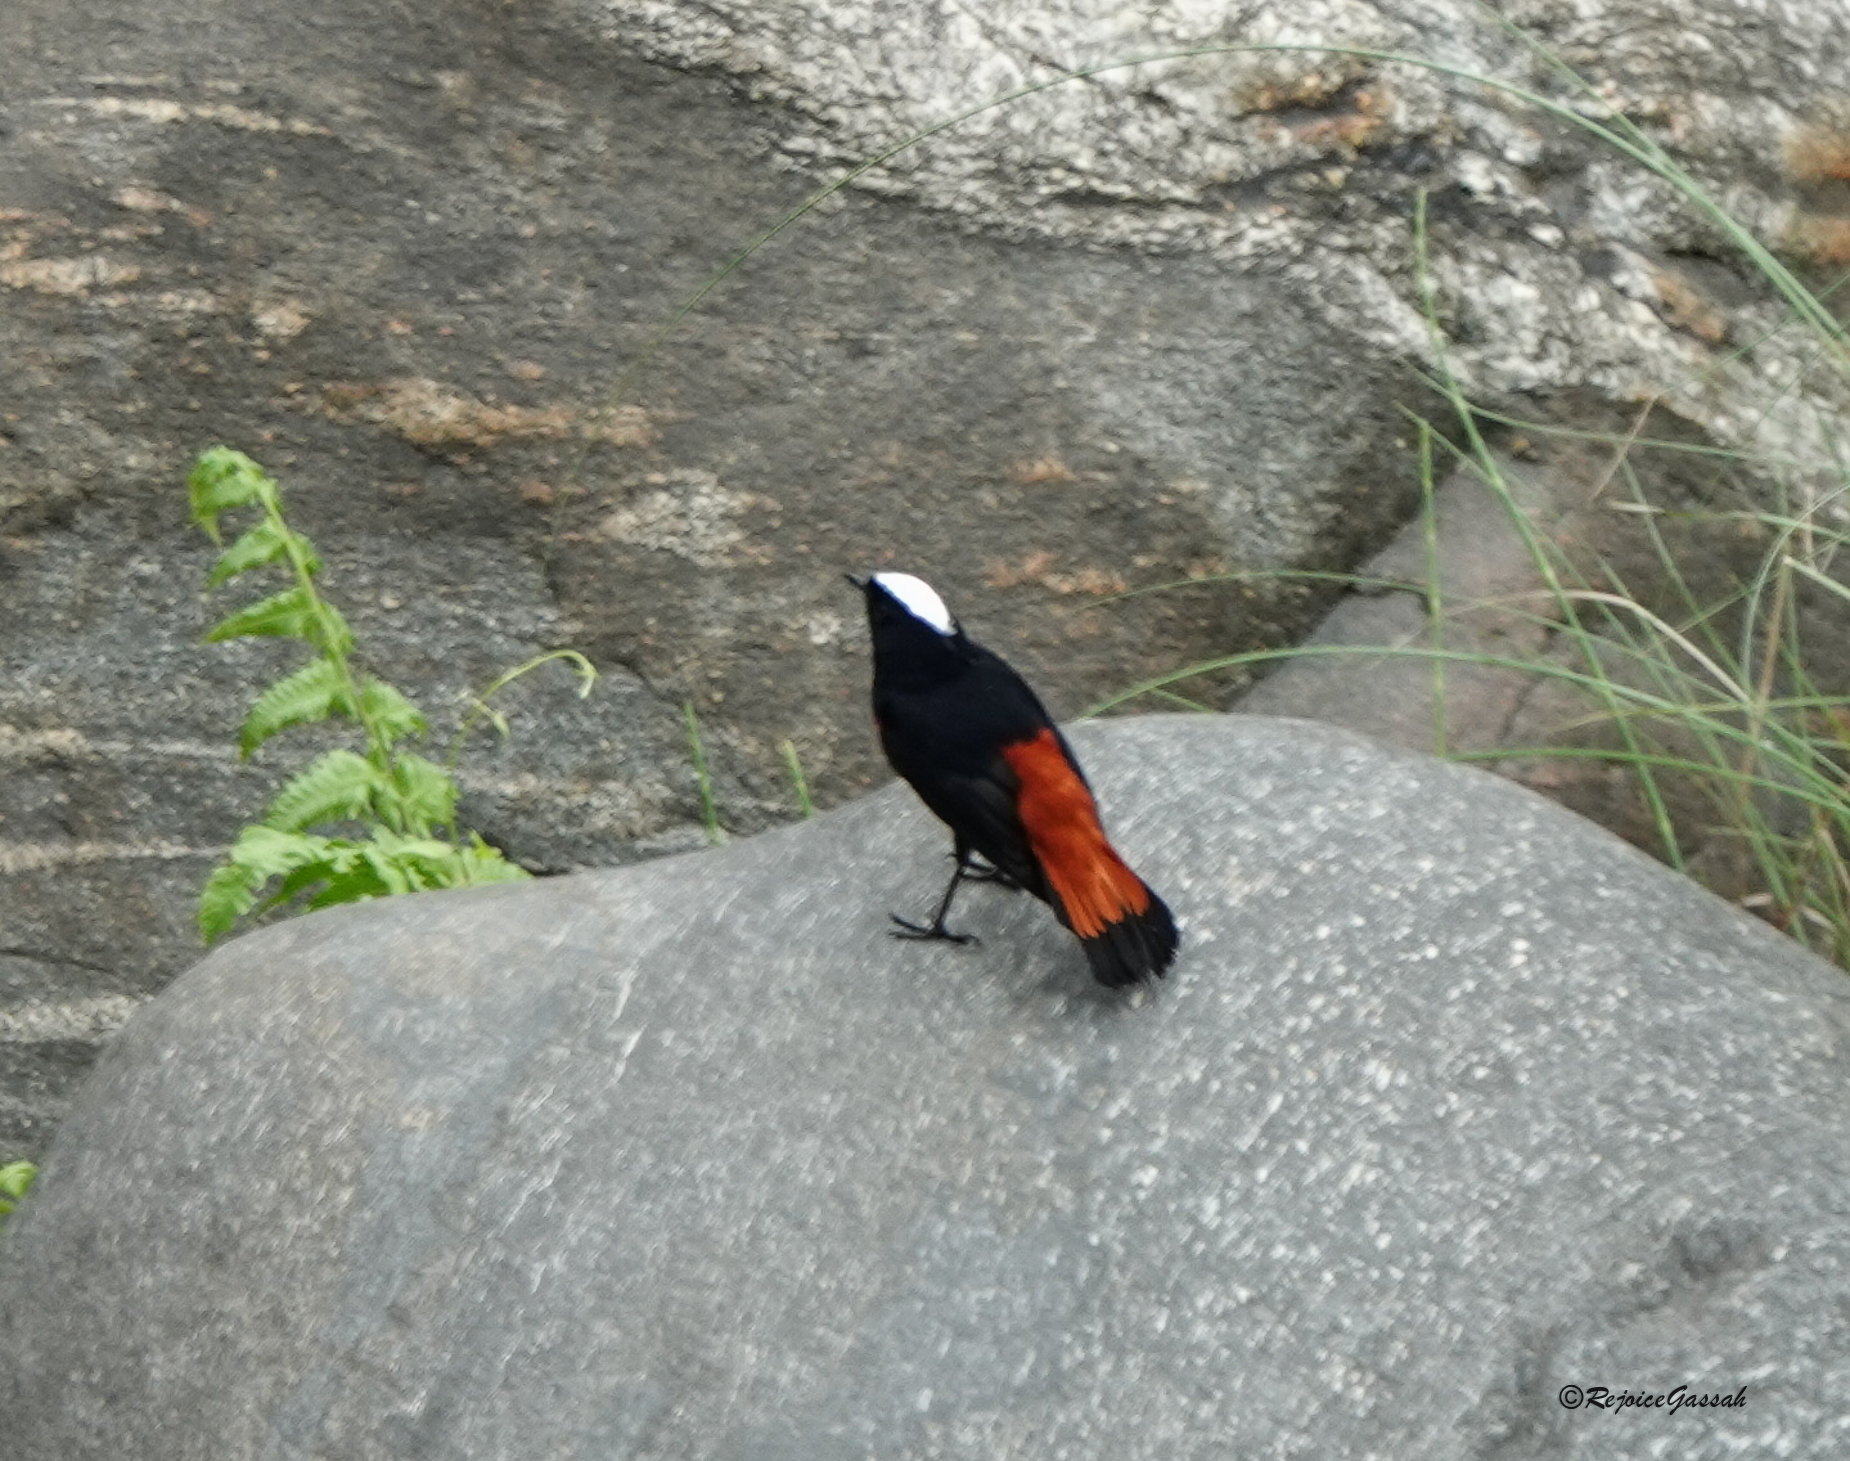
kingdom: Animalia
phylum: Chordata
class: Aves
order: Passeriformes
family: Muscicapidae
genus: Chaimarrornis
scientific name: Chaimarrornis leucocephalus
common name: White-capped redstart
